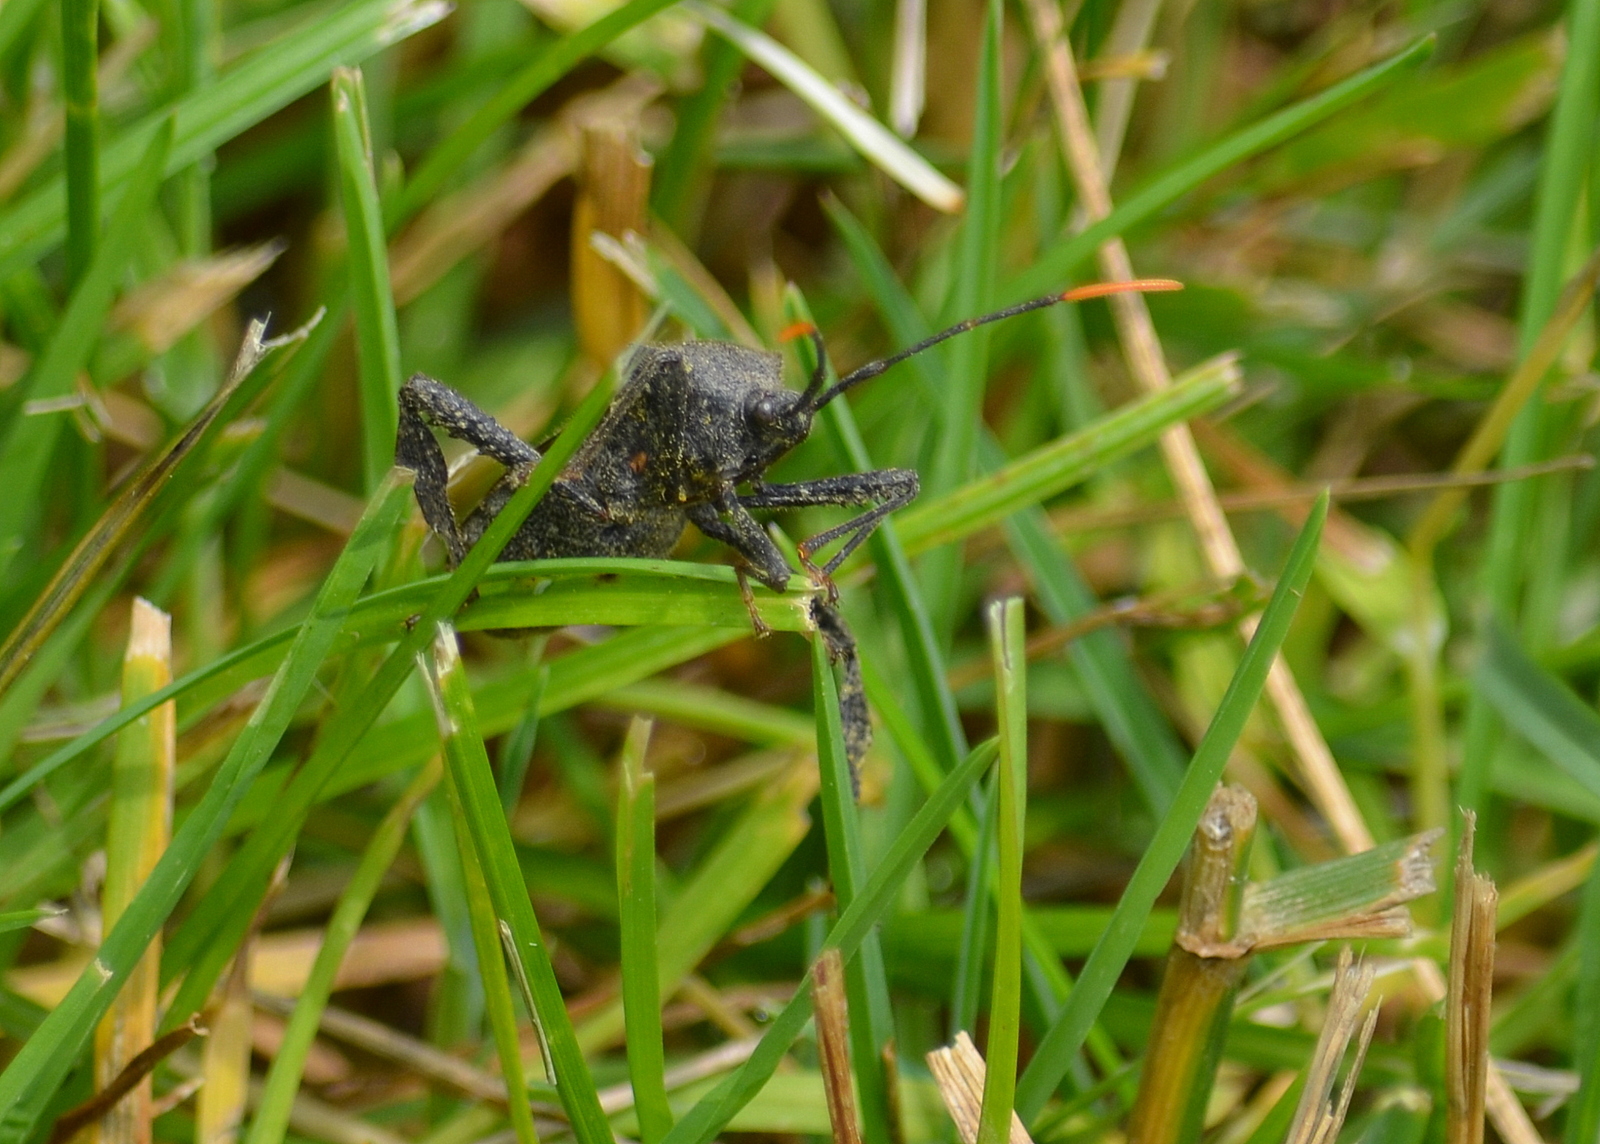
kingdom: Animalia
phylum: Arthropoda
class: Insecta
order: Hemiptera
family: Coreidae
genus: Acanthocephala
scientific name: Acanthocephala terminalis
